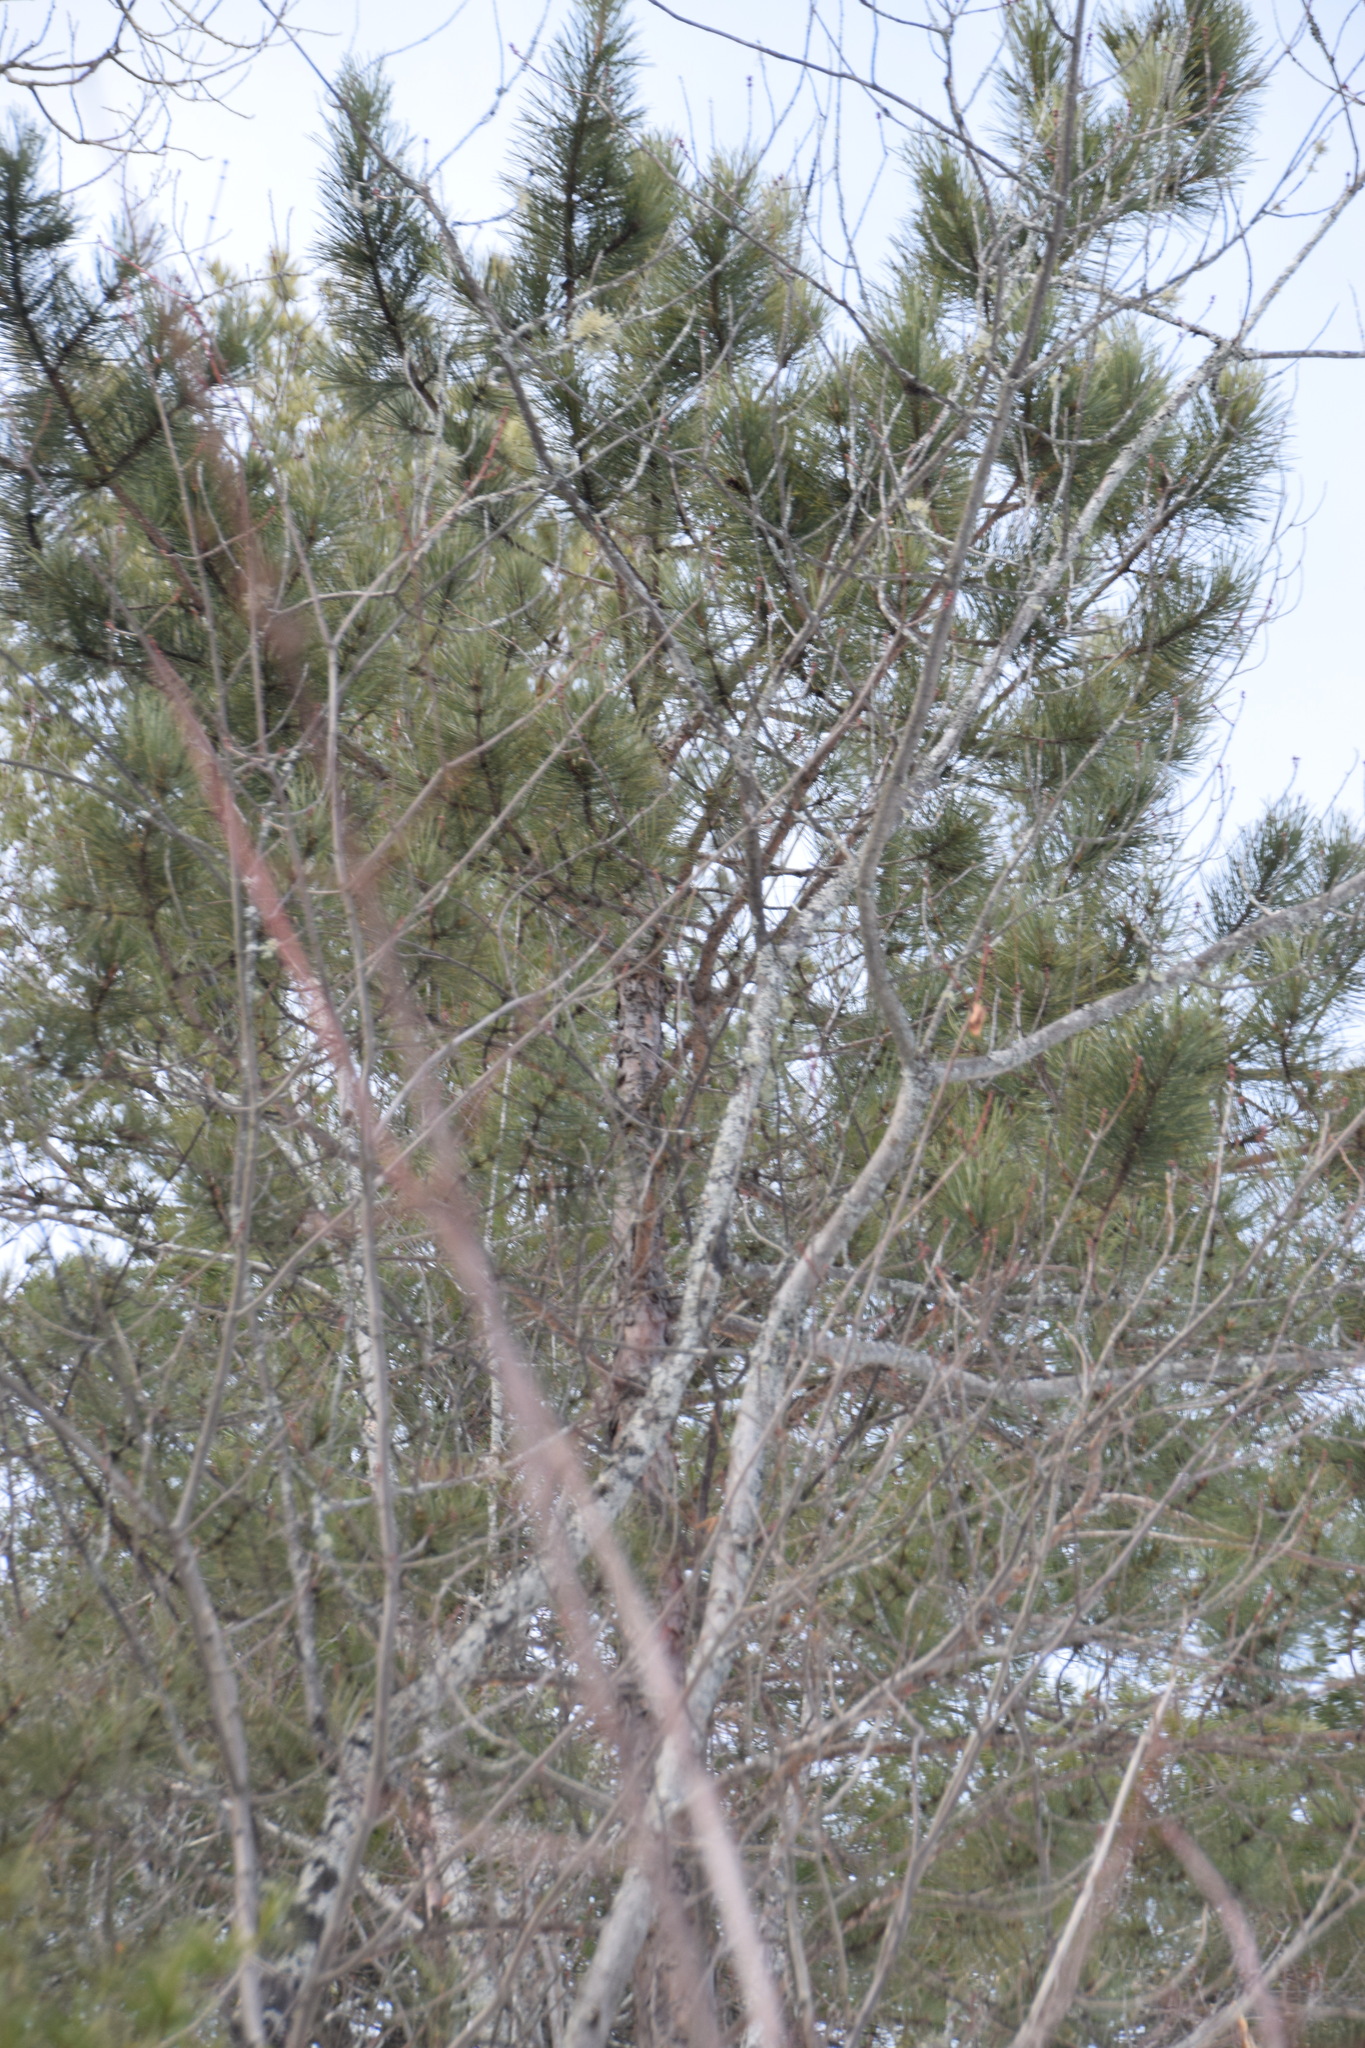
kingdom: Plantae
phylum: Tracheophyta
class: Pinopsida
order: Pinales
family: Pinaceae
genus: Pinus
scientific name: Pinus resinosa
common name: Norway pine
